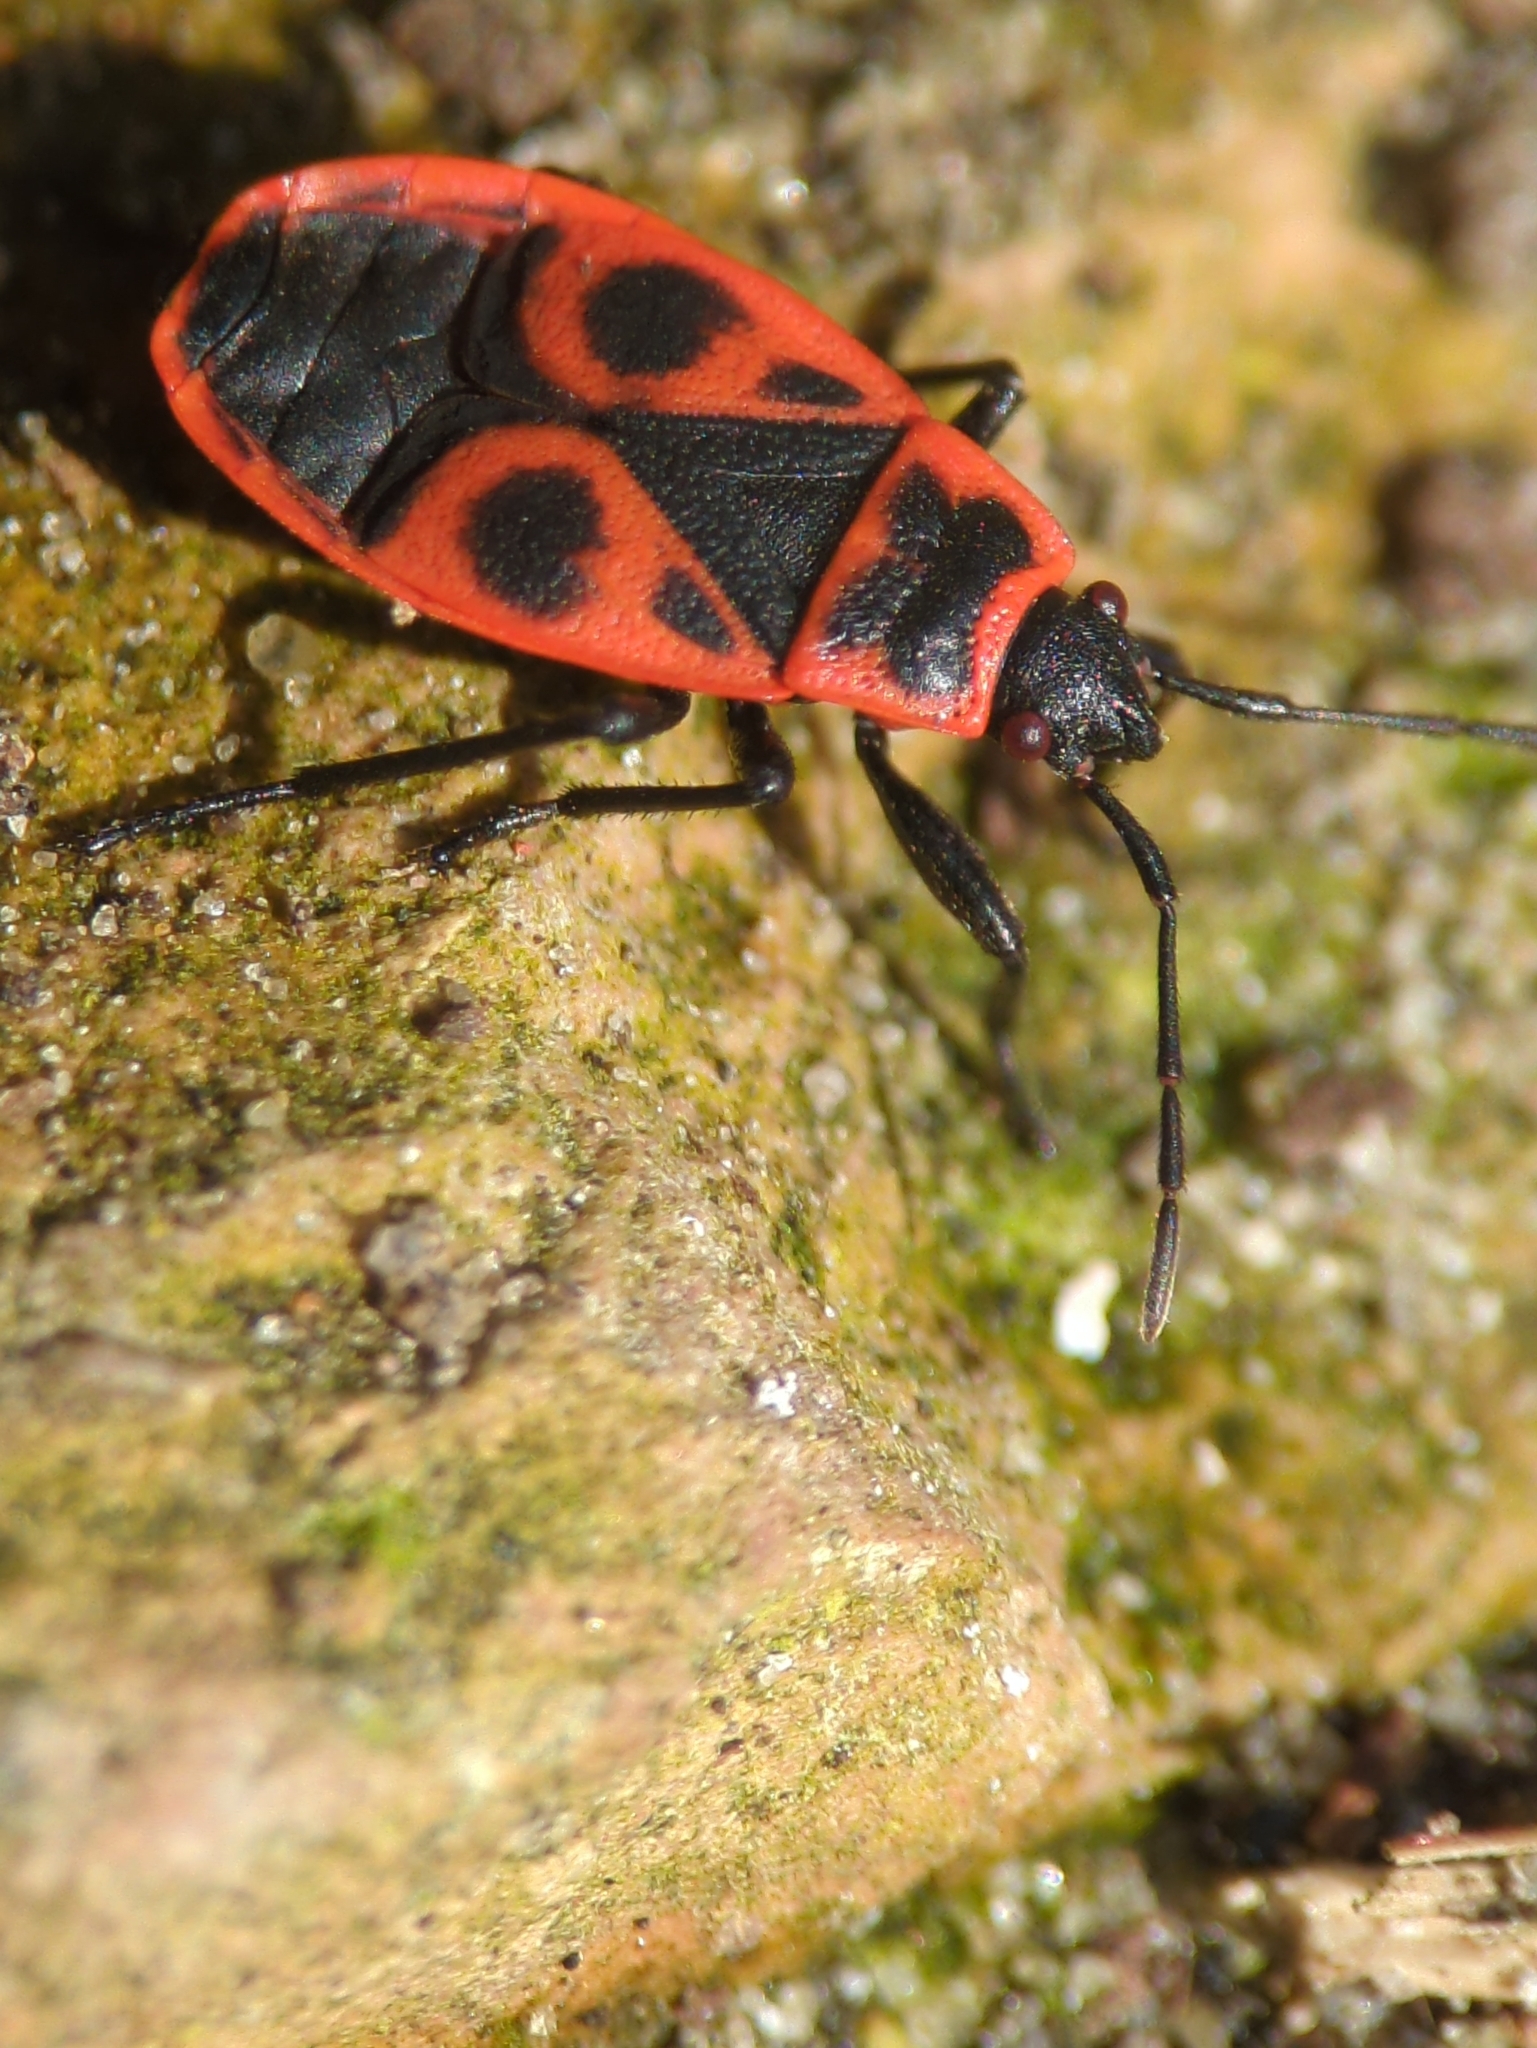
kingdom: Animalia
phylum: Arthropoda
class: Insecta
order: Hemiptera
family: Pyrrhocoridae
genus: Pyrrhocoris
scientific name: Pyrrhocoris apterus
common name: Firebug
